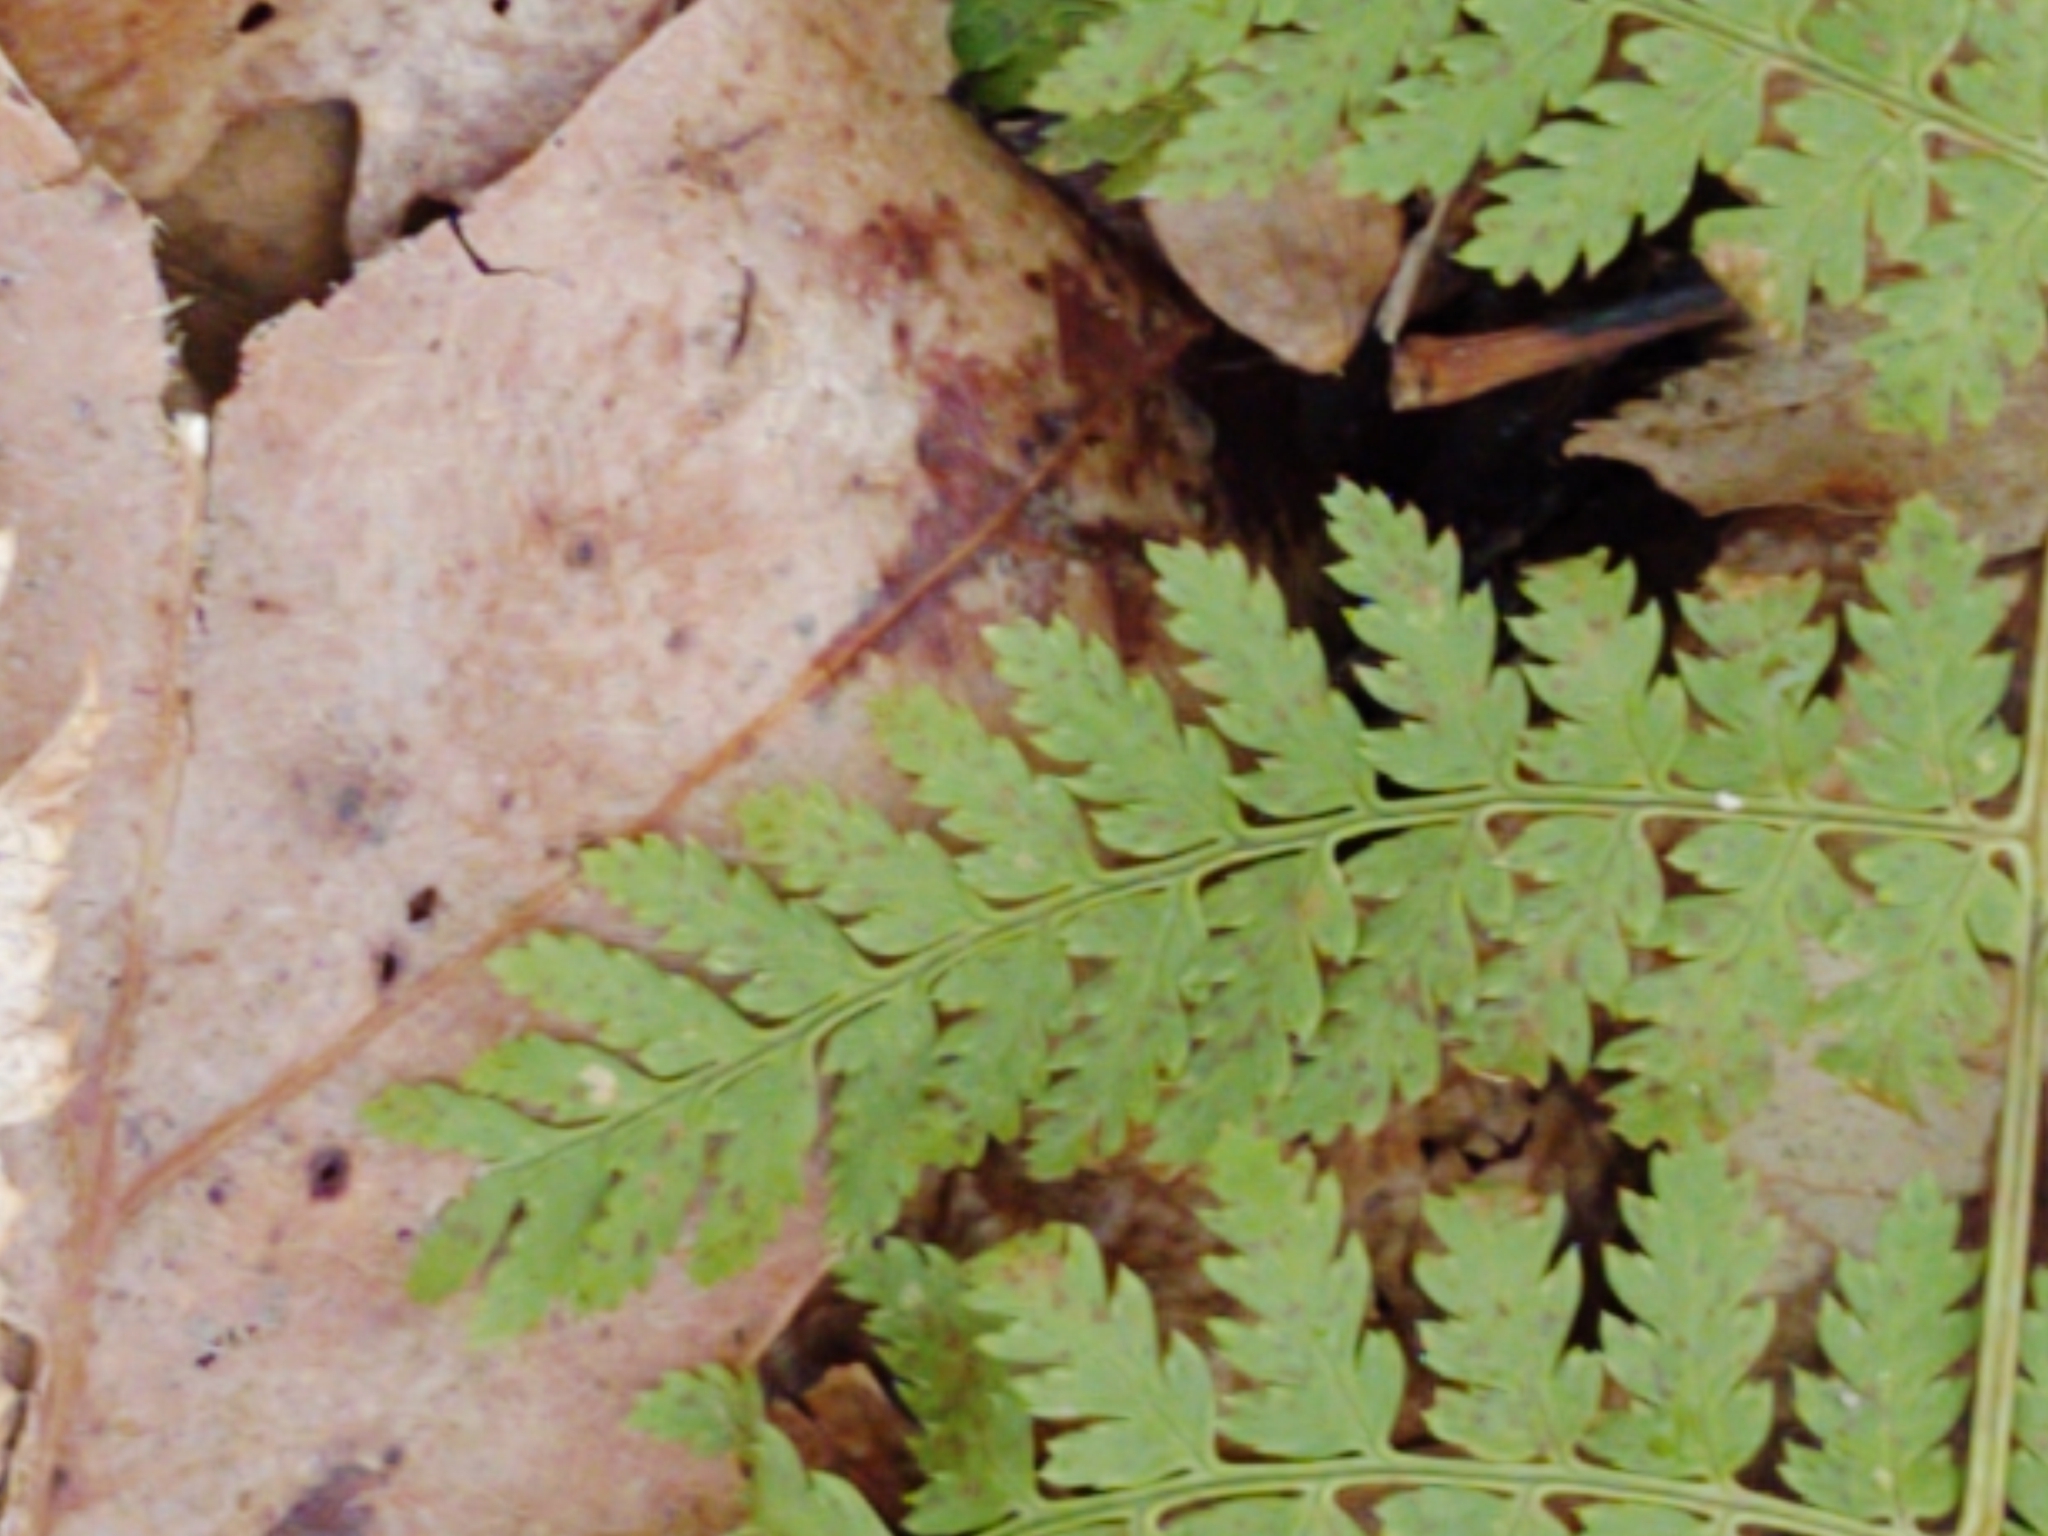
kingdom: Plantae
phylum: Tracheophyta
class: Polypodiopsida
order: Polypodiales
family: Dryopteridaceae
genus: Dryopteris
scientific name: Dryopteris intermedia
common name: Evergreen wood fern
